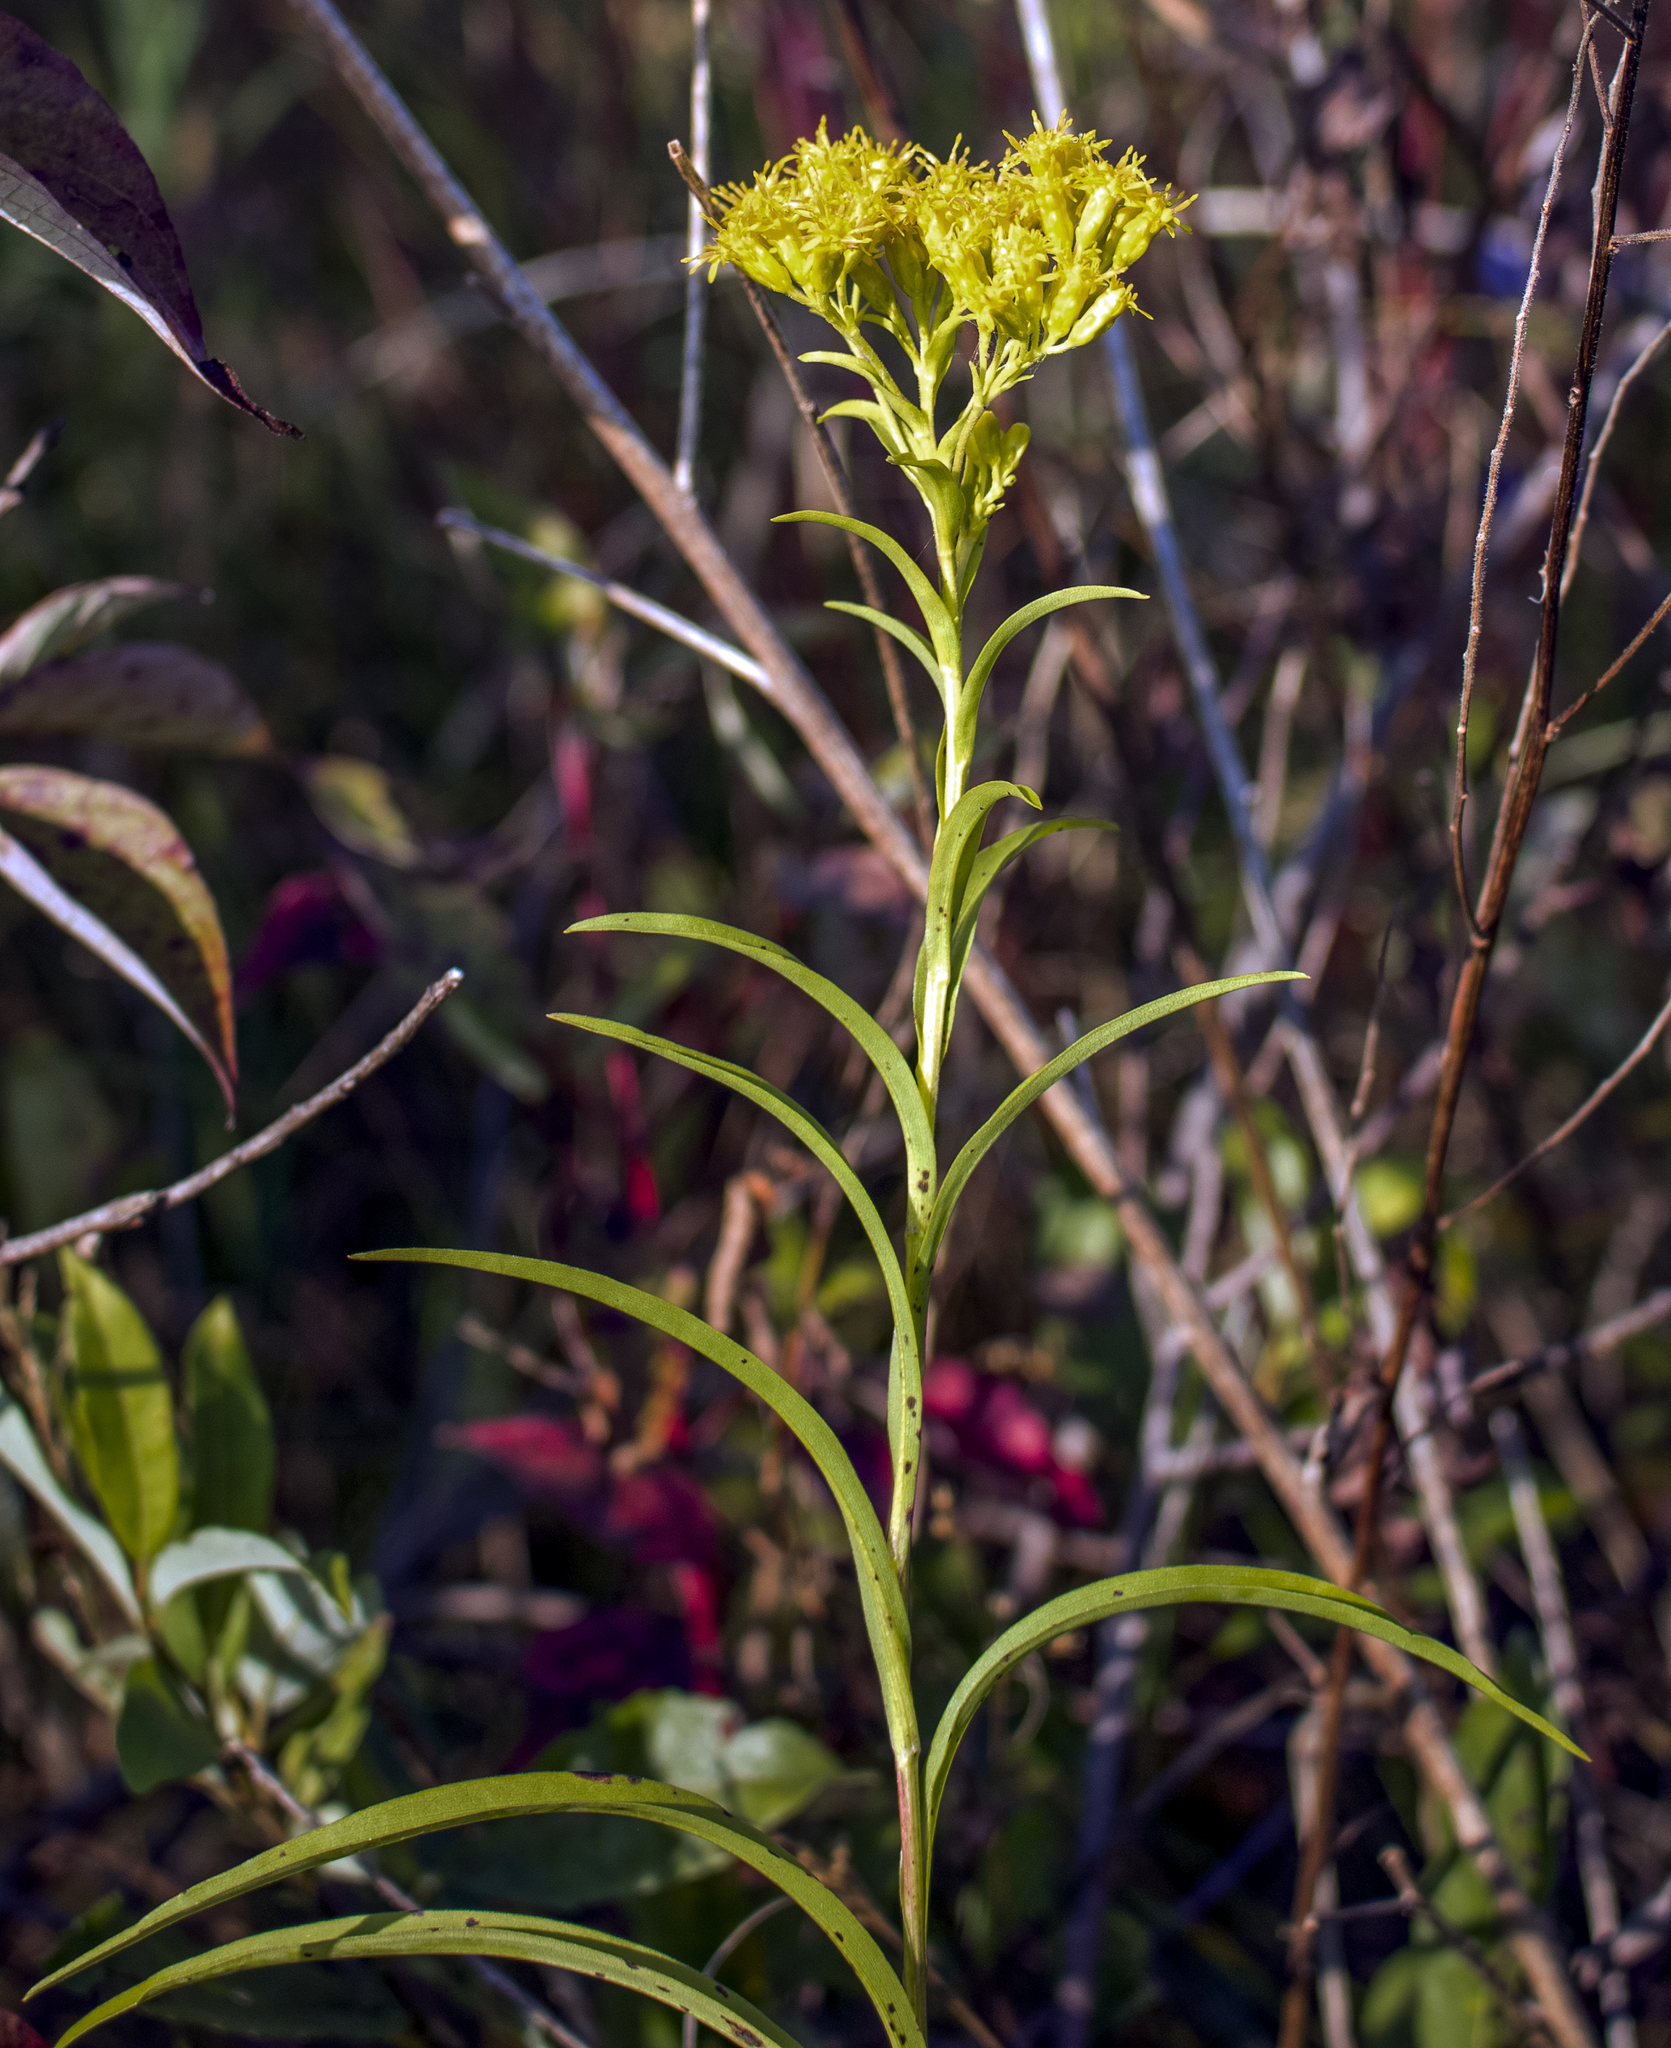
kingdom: Plantae
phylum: Tracheophyta
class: Magnoliopsida
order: Asterales
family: Asteraceae
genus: Solidago
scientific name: Solidago riddellii
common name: Riddell's goldenrod
